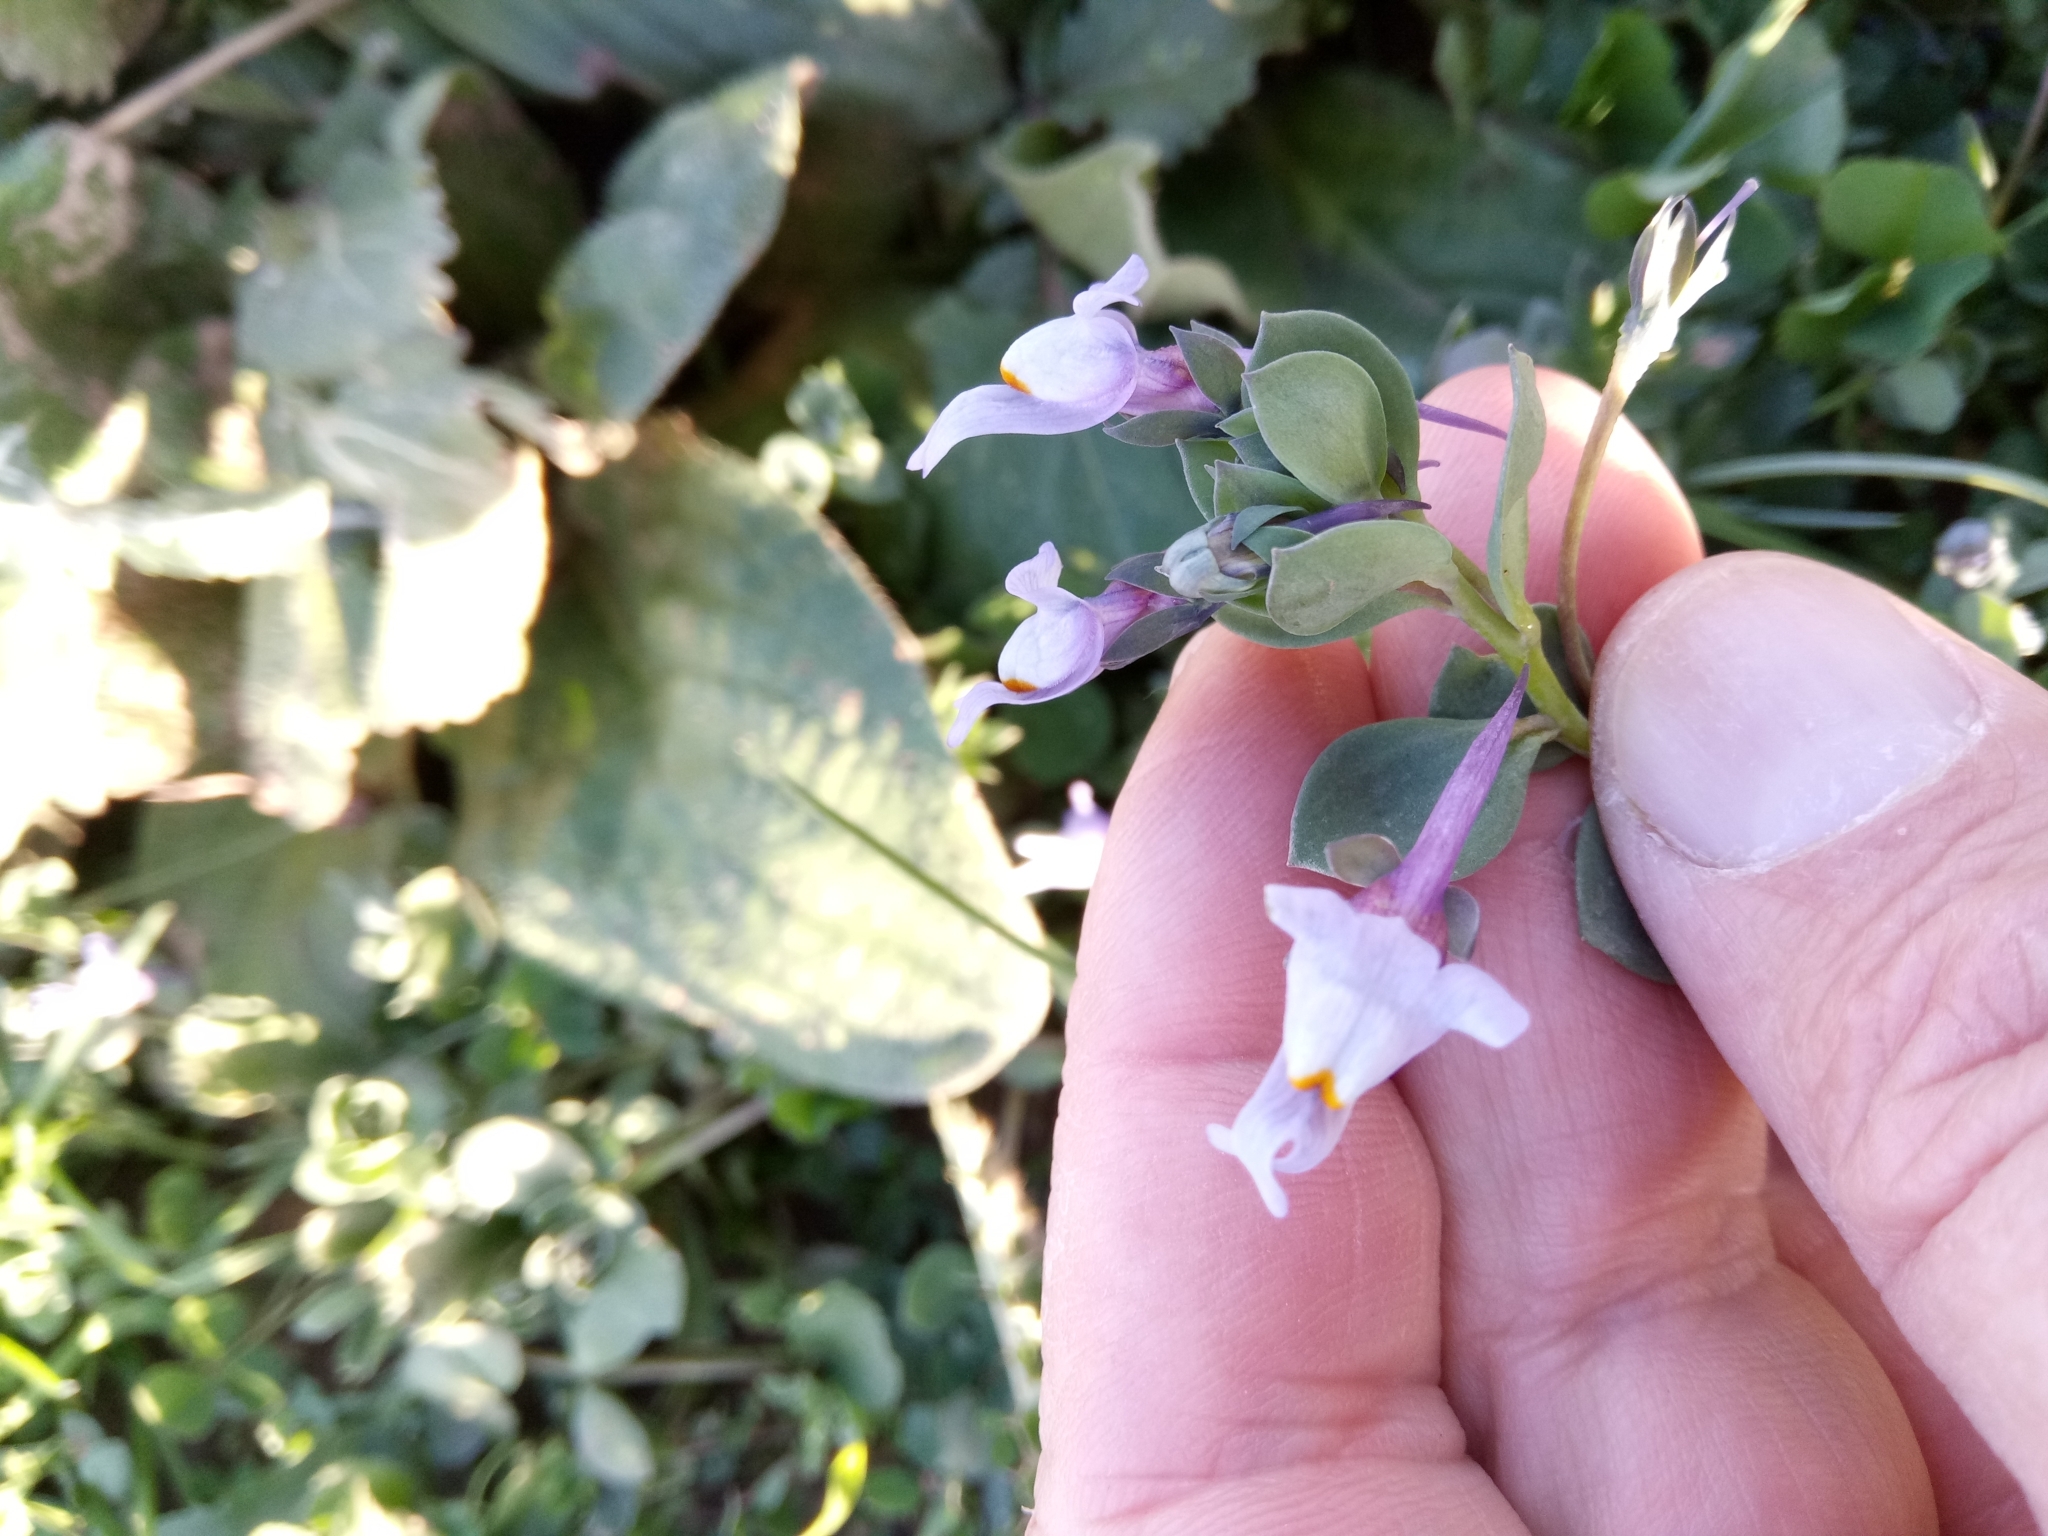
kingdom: Plantae
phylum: Tracheophyta
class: Magnoliopsida
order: Lamiales
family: Plantaginaceae
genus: Linaria
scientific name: Linaria reflexa
